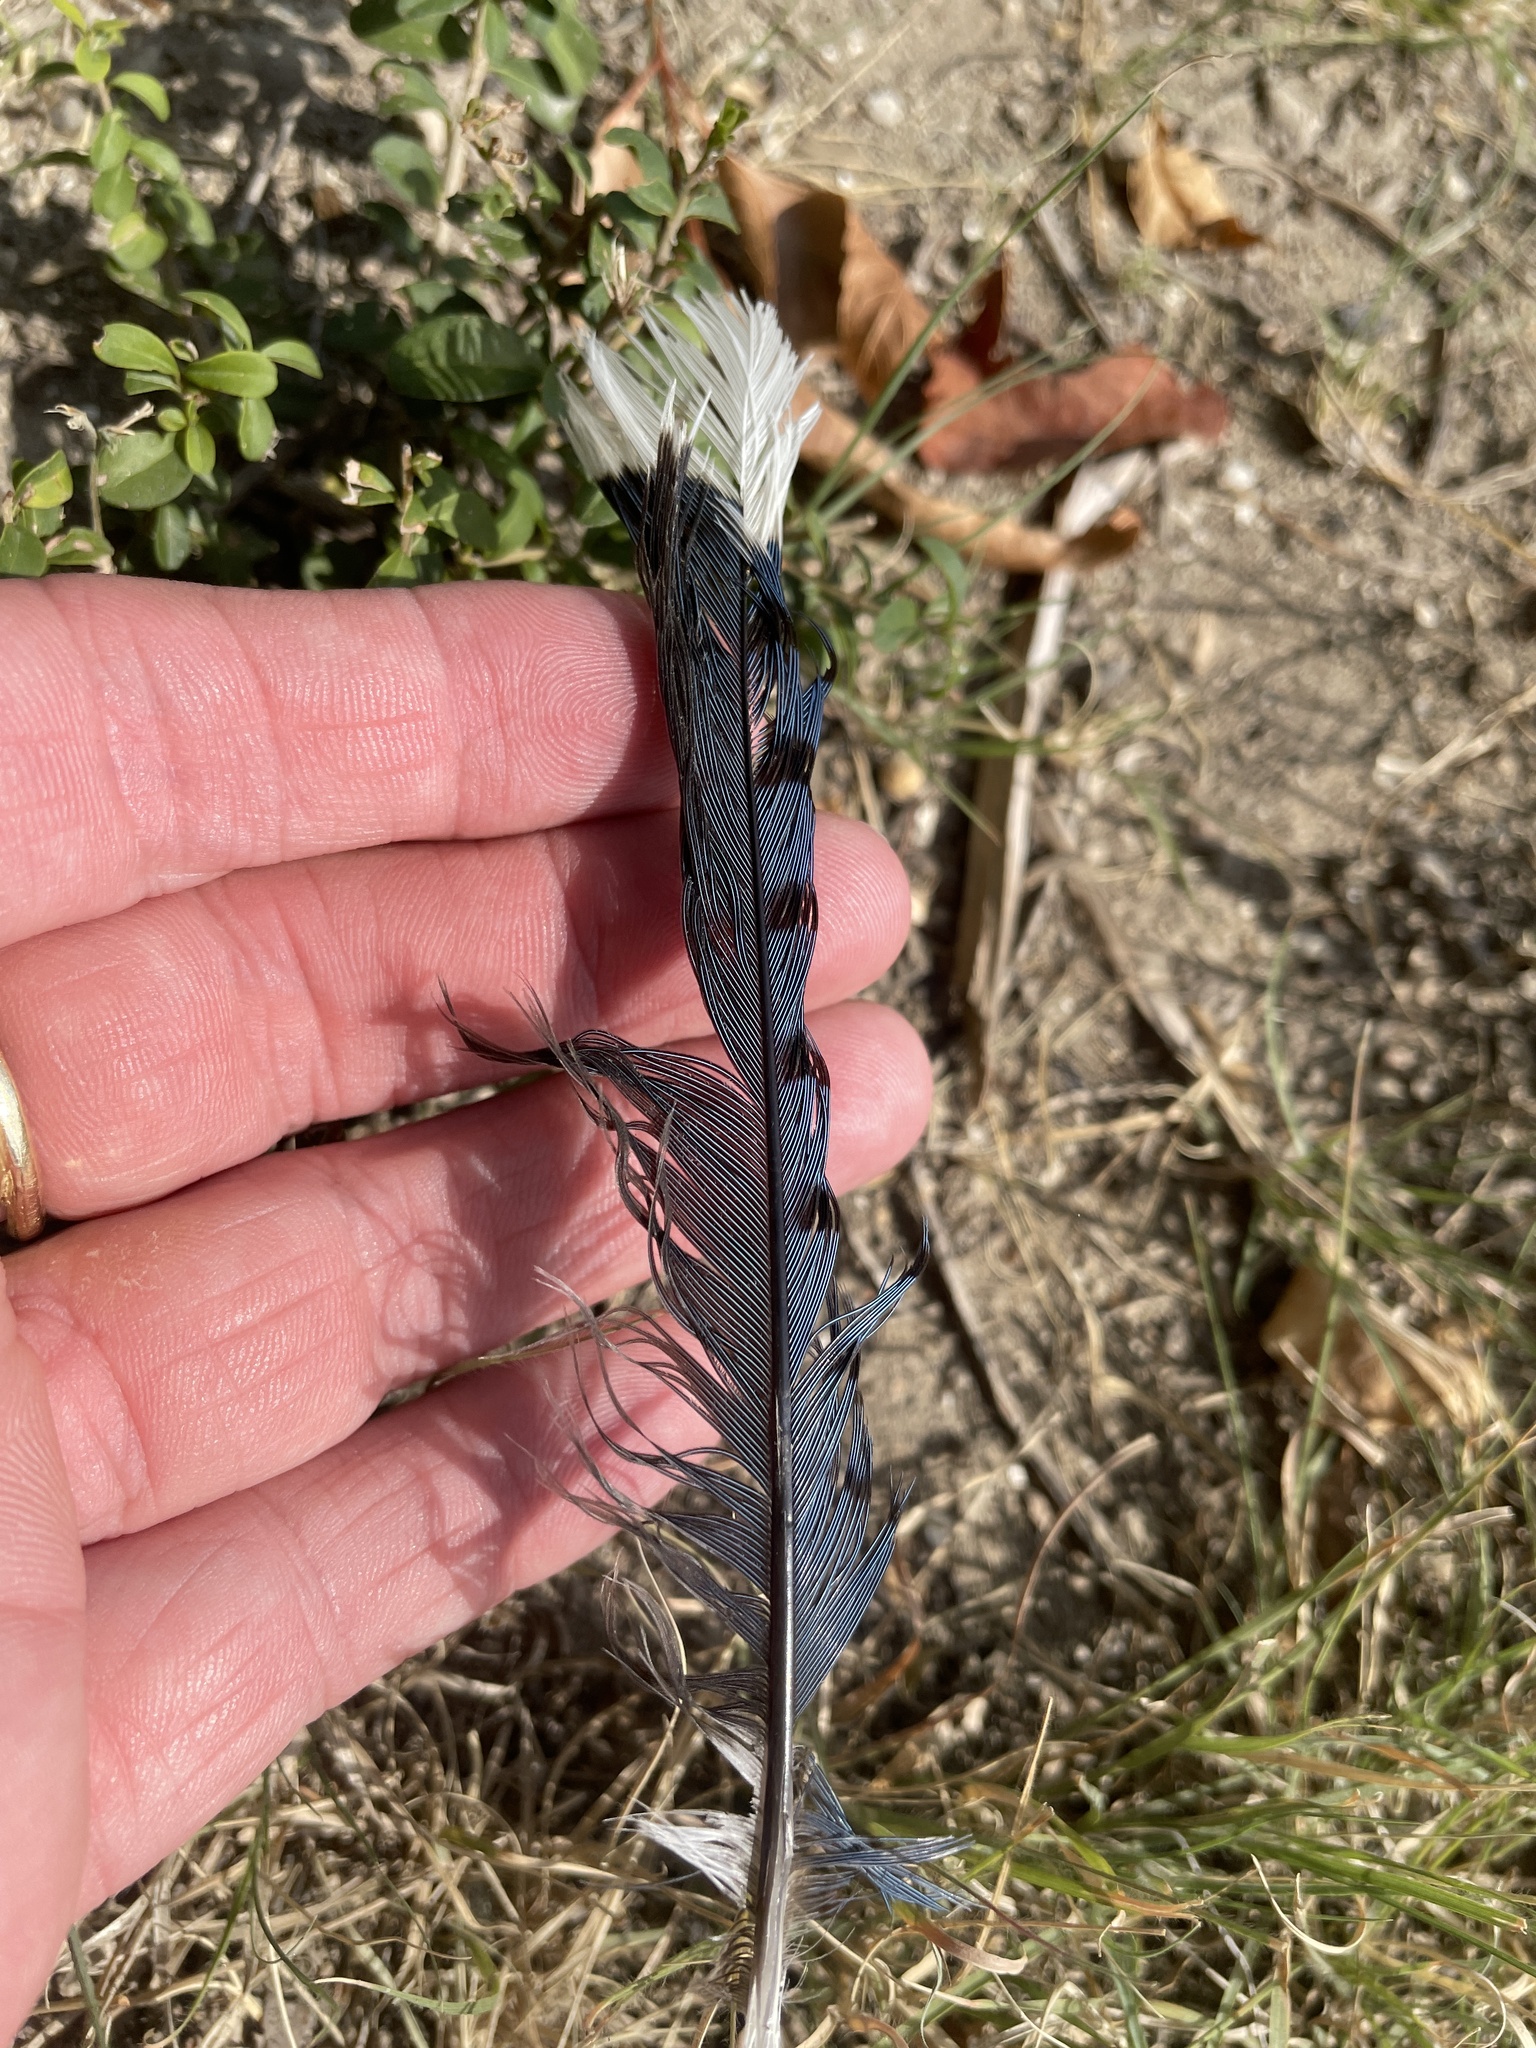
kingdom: Animalia
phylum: Chordata
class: Aves
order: Passeriformes
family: Corvidae
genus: Cyanocitta
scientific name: Cyanocitta cristata
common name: Blue jay
